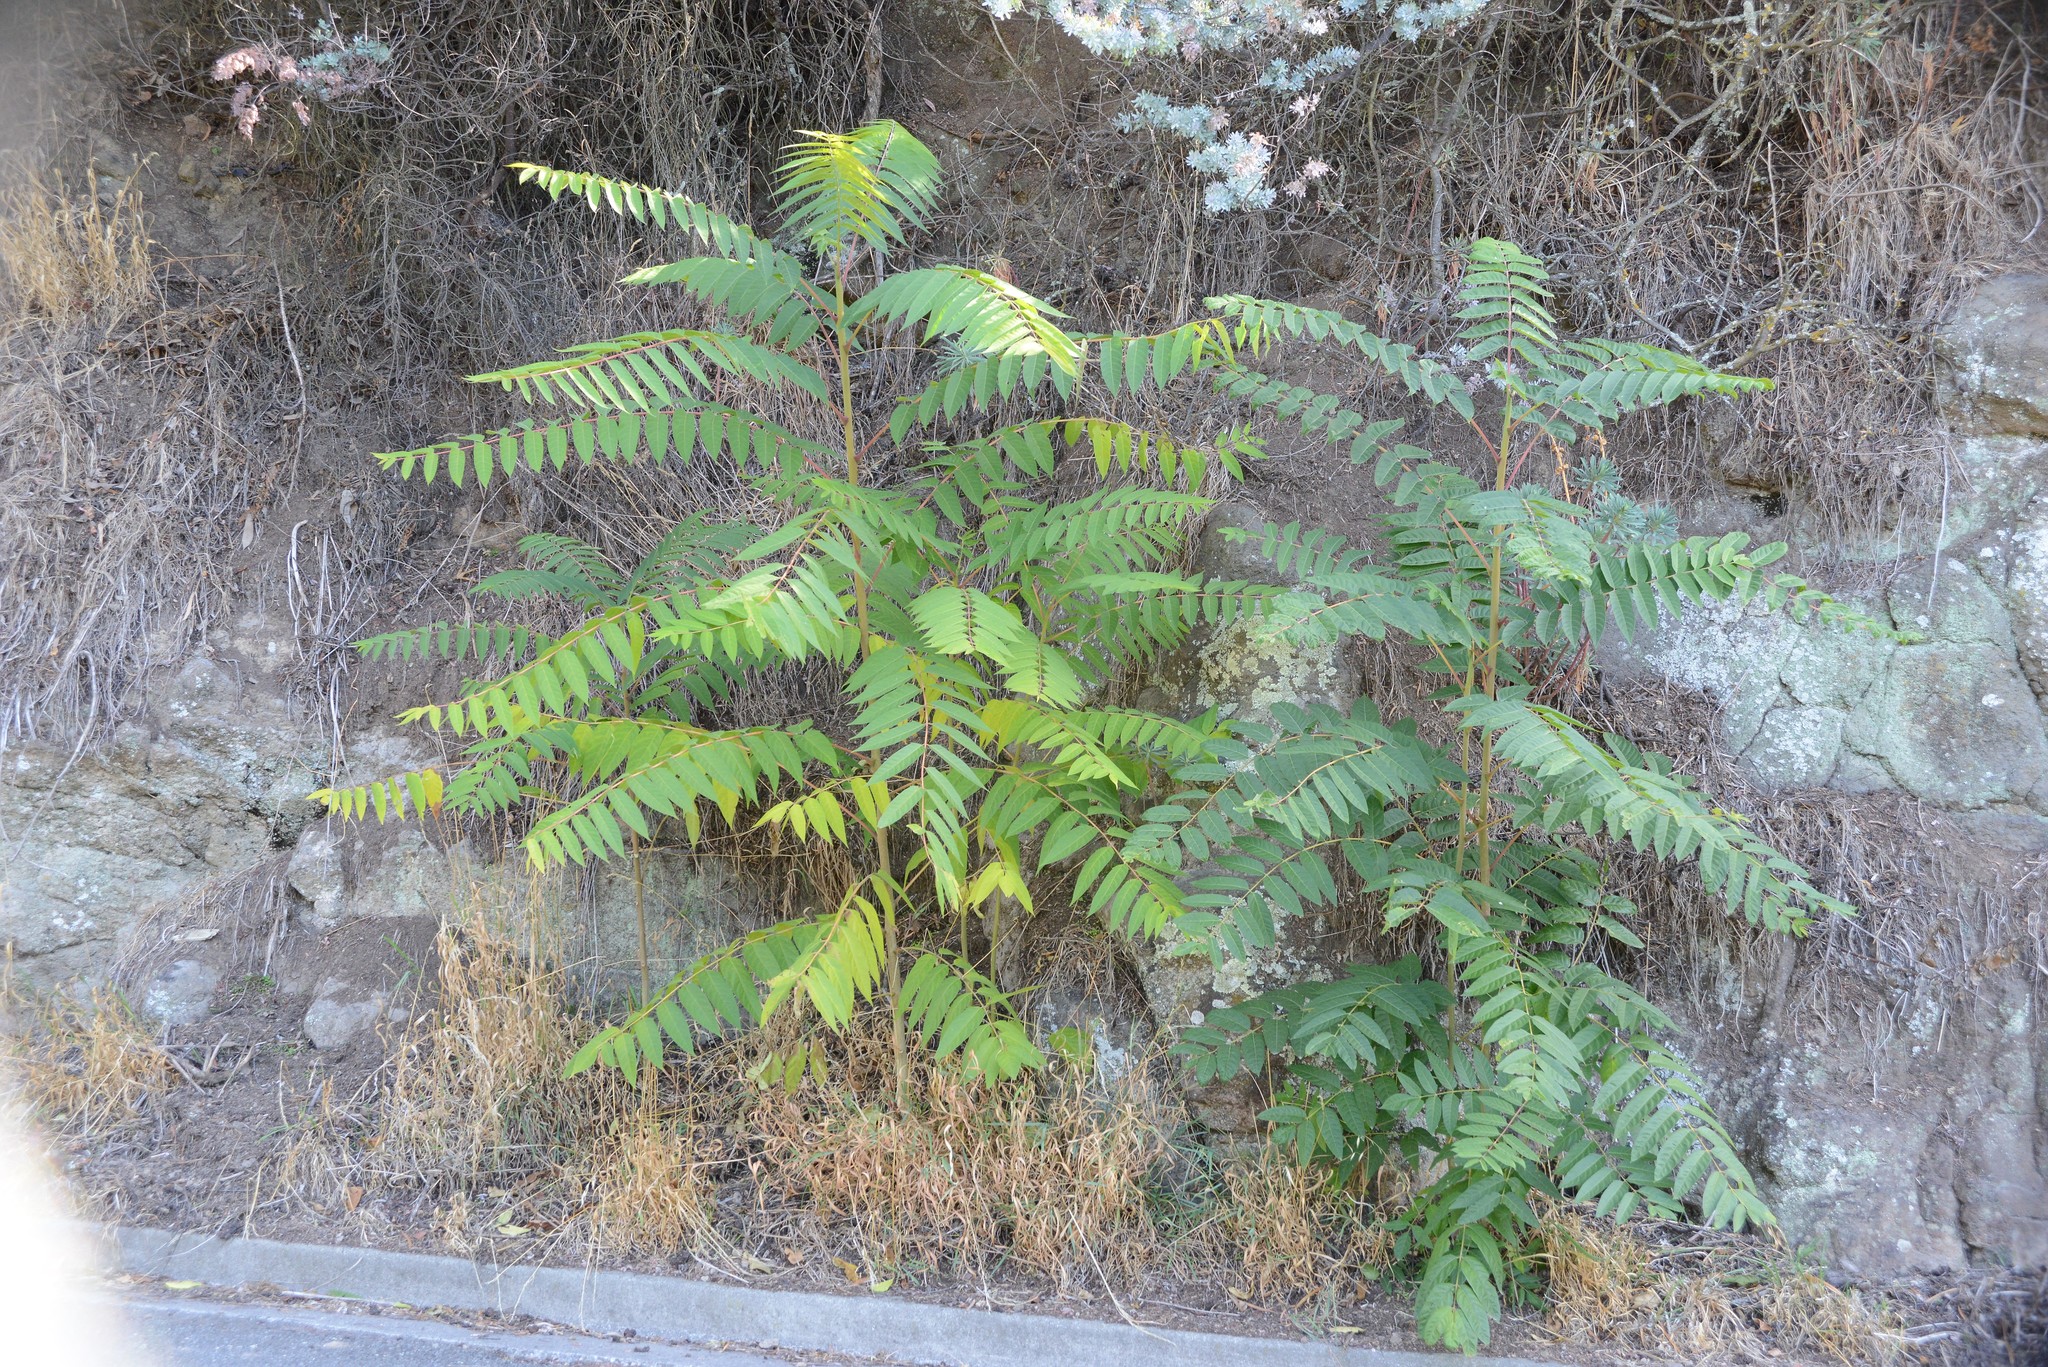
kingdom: Plantae
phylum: Tracheophyta
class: Magnoliopsida
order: Sapindales
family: Simaroubaceae
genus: Ailanthus
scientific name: Ailanthus altissima
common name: Tree-of-heaven
